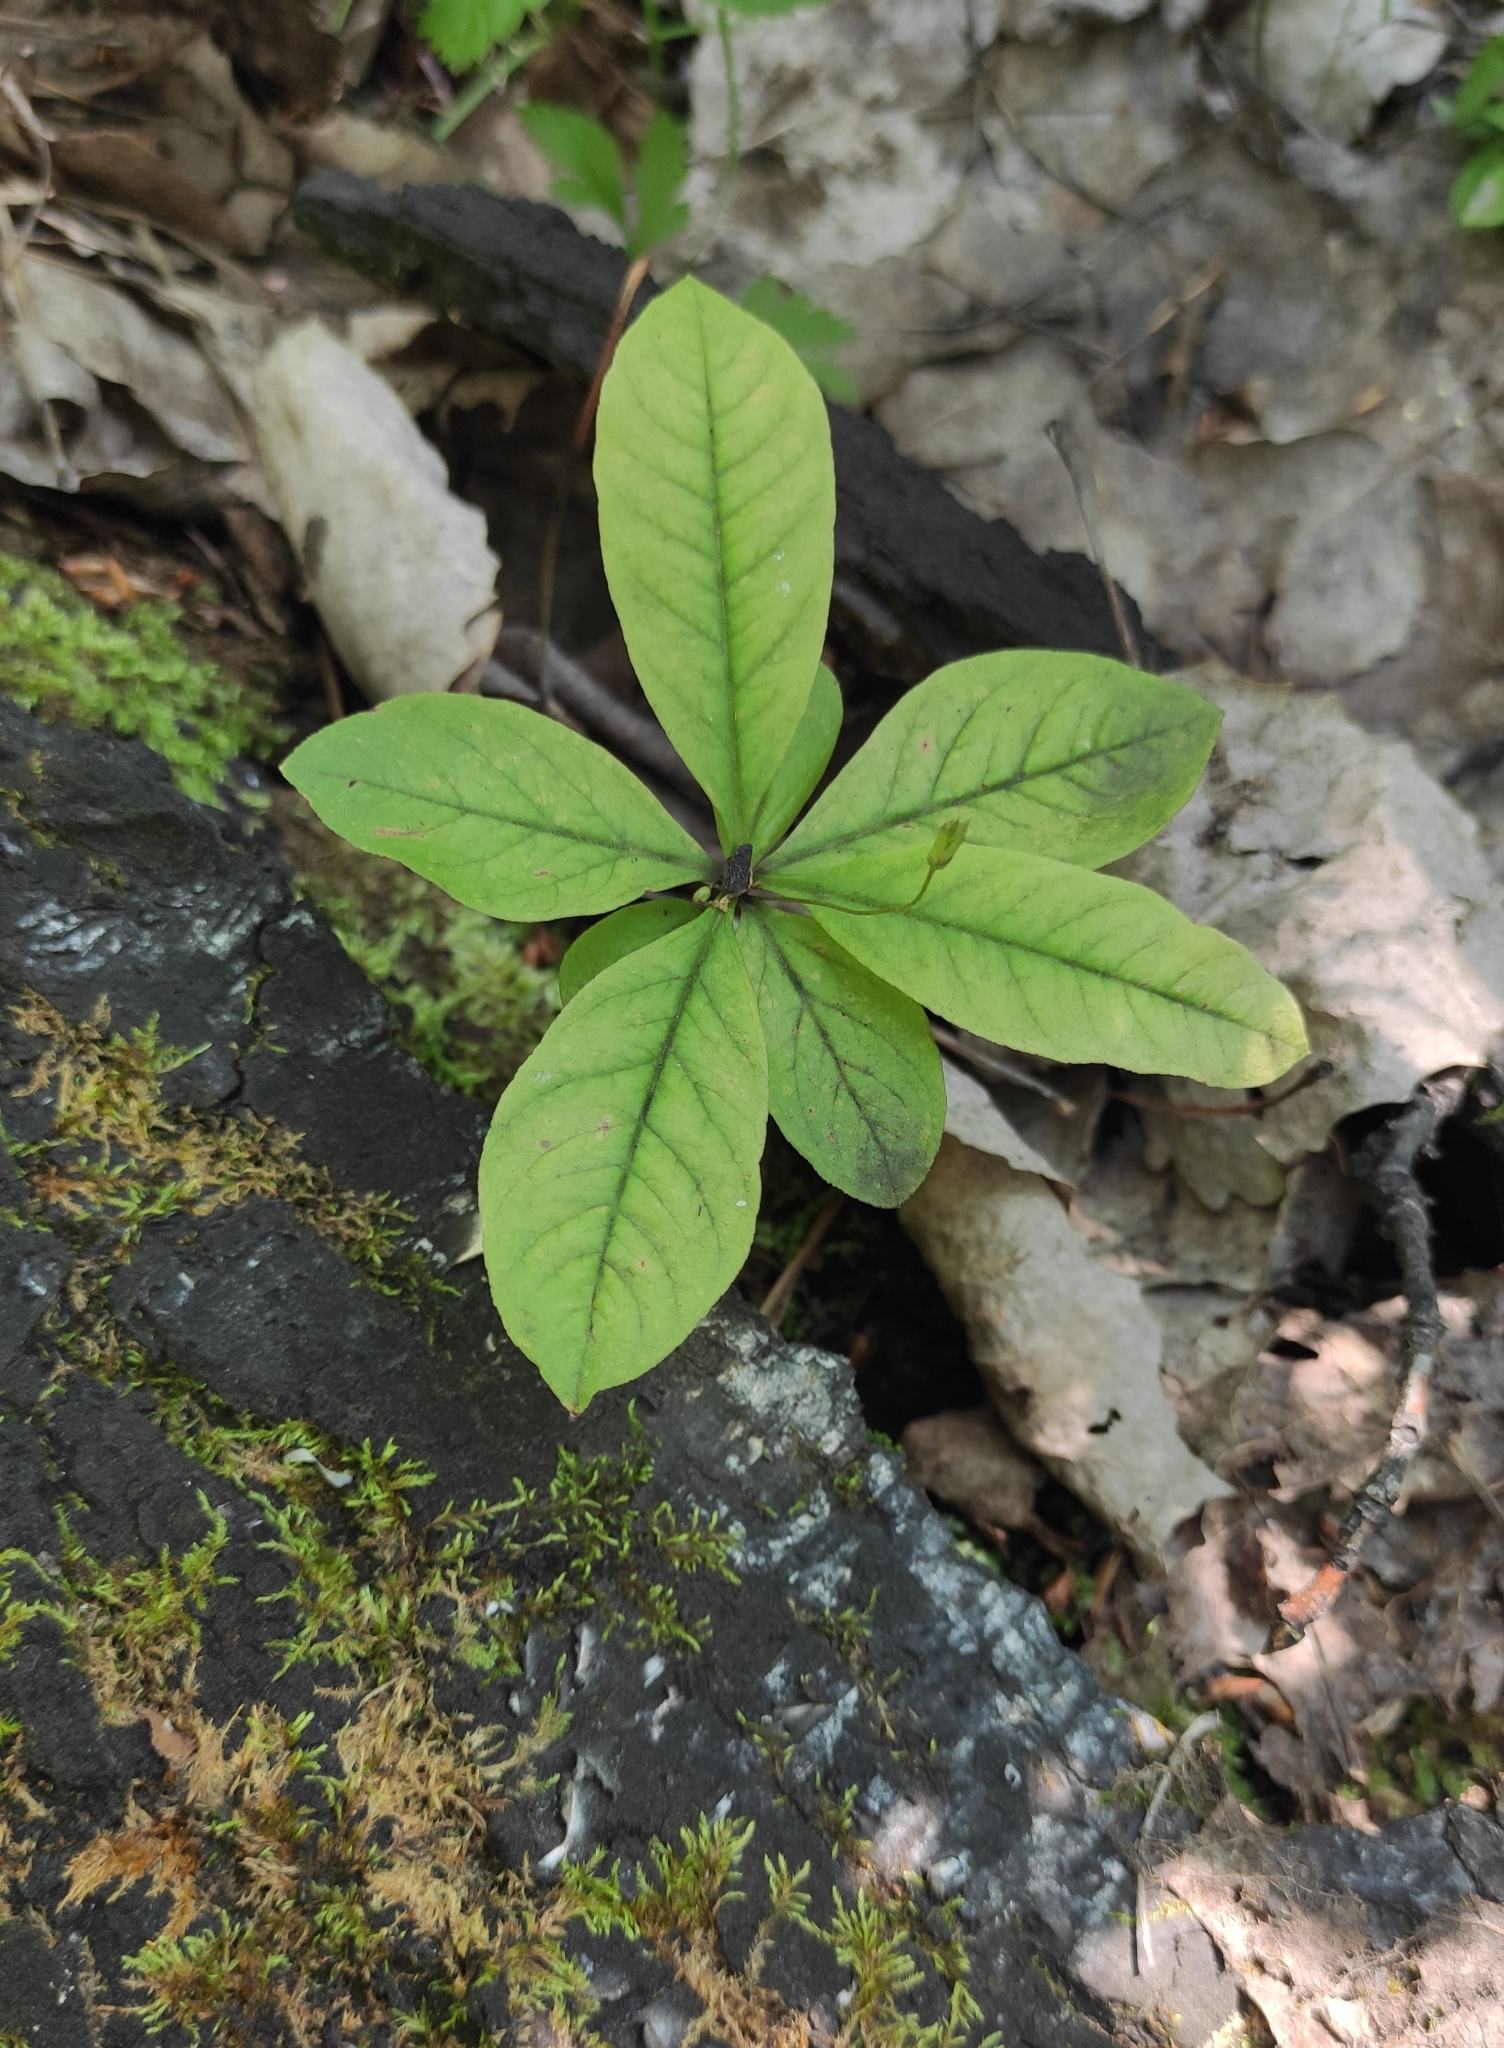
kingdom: Plantae
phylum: Tracheophyta
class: Magnoliopsida
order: Ericales
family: Primulaceae
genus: Lysimachia
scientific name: Lysimachia europaea
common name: Arctic starflower
